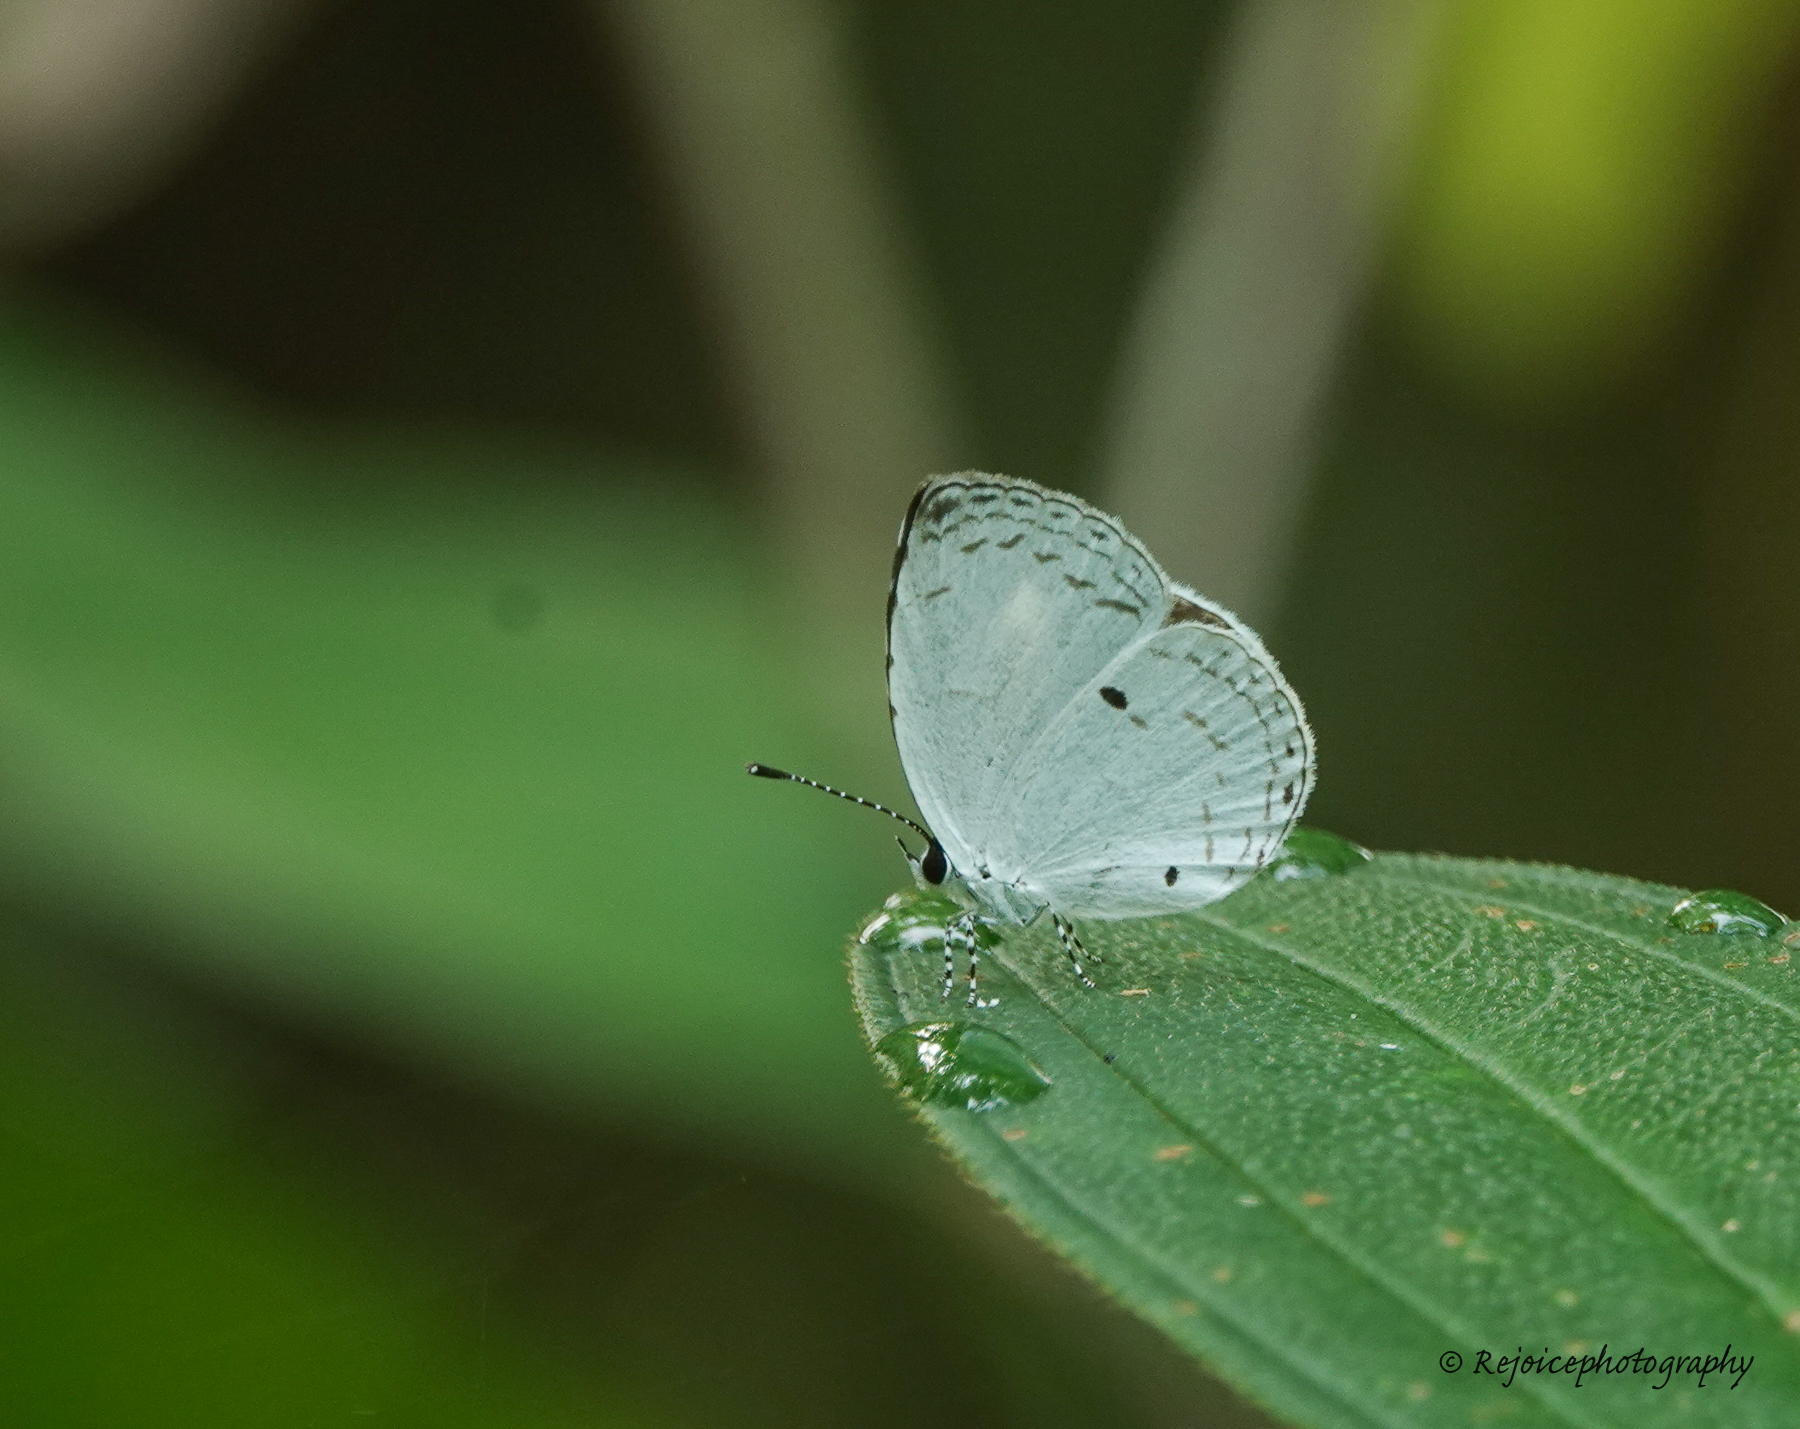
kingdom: Animalia
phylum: Arthropoda
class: Insecta
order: Lepidoptera
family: Lycaenidae
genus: Neopithecops
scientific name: Neopithecops zalmora
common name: Quaker
